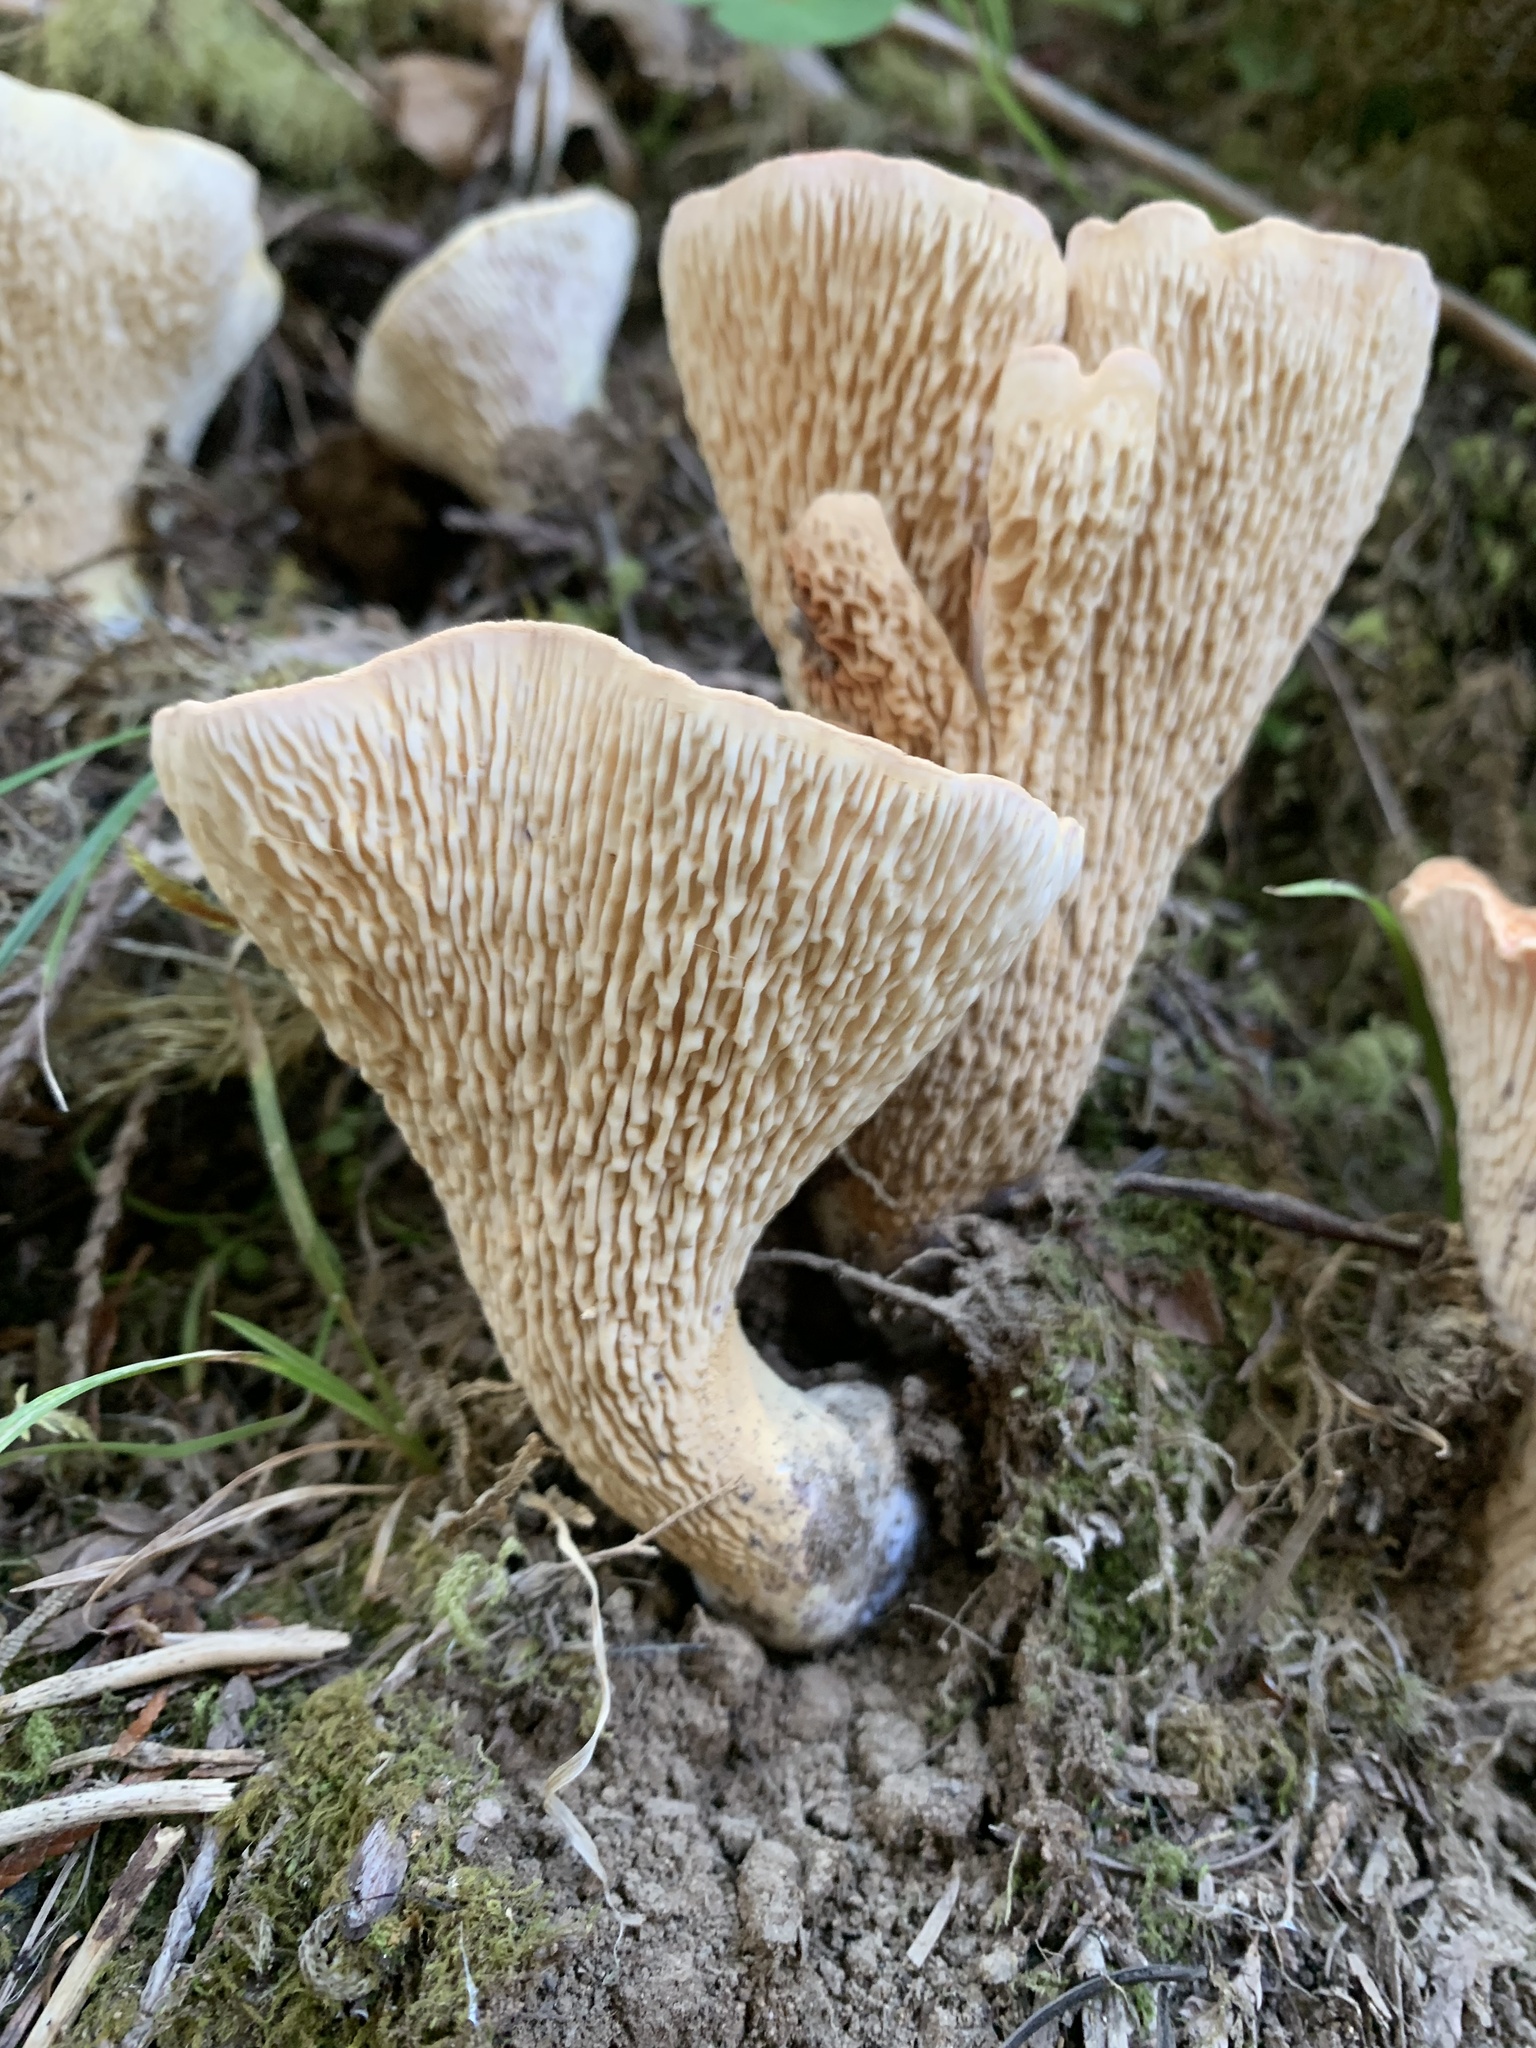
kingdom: Fungi
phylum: Basidiomycota
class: Agaricomycetes
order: Gomphales
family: Gomphaceae
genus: Turbinellus
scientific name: Turbinellus kauffmanii
